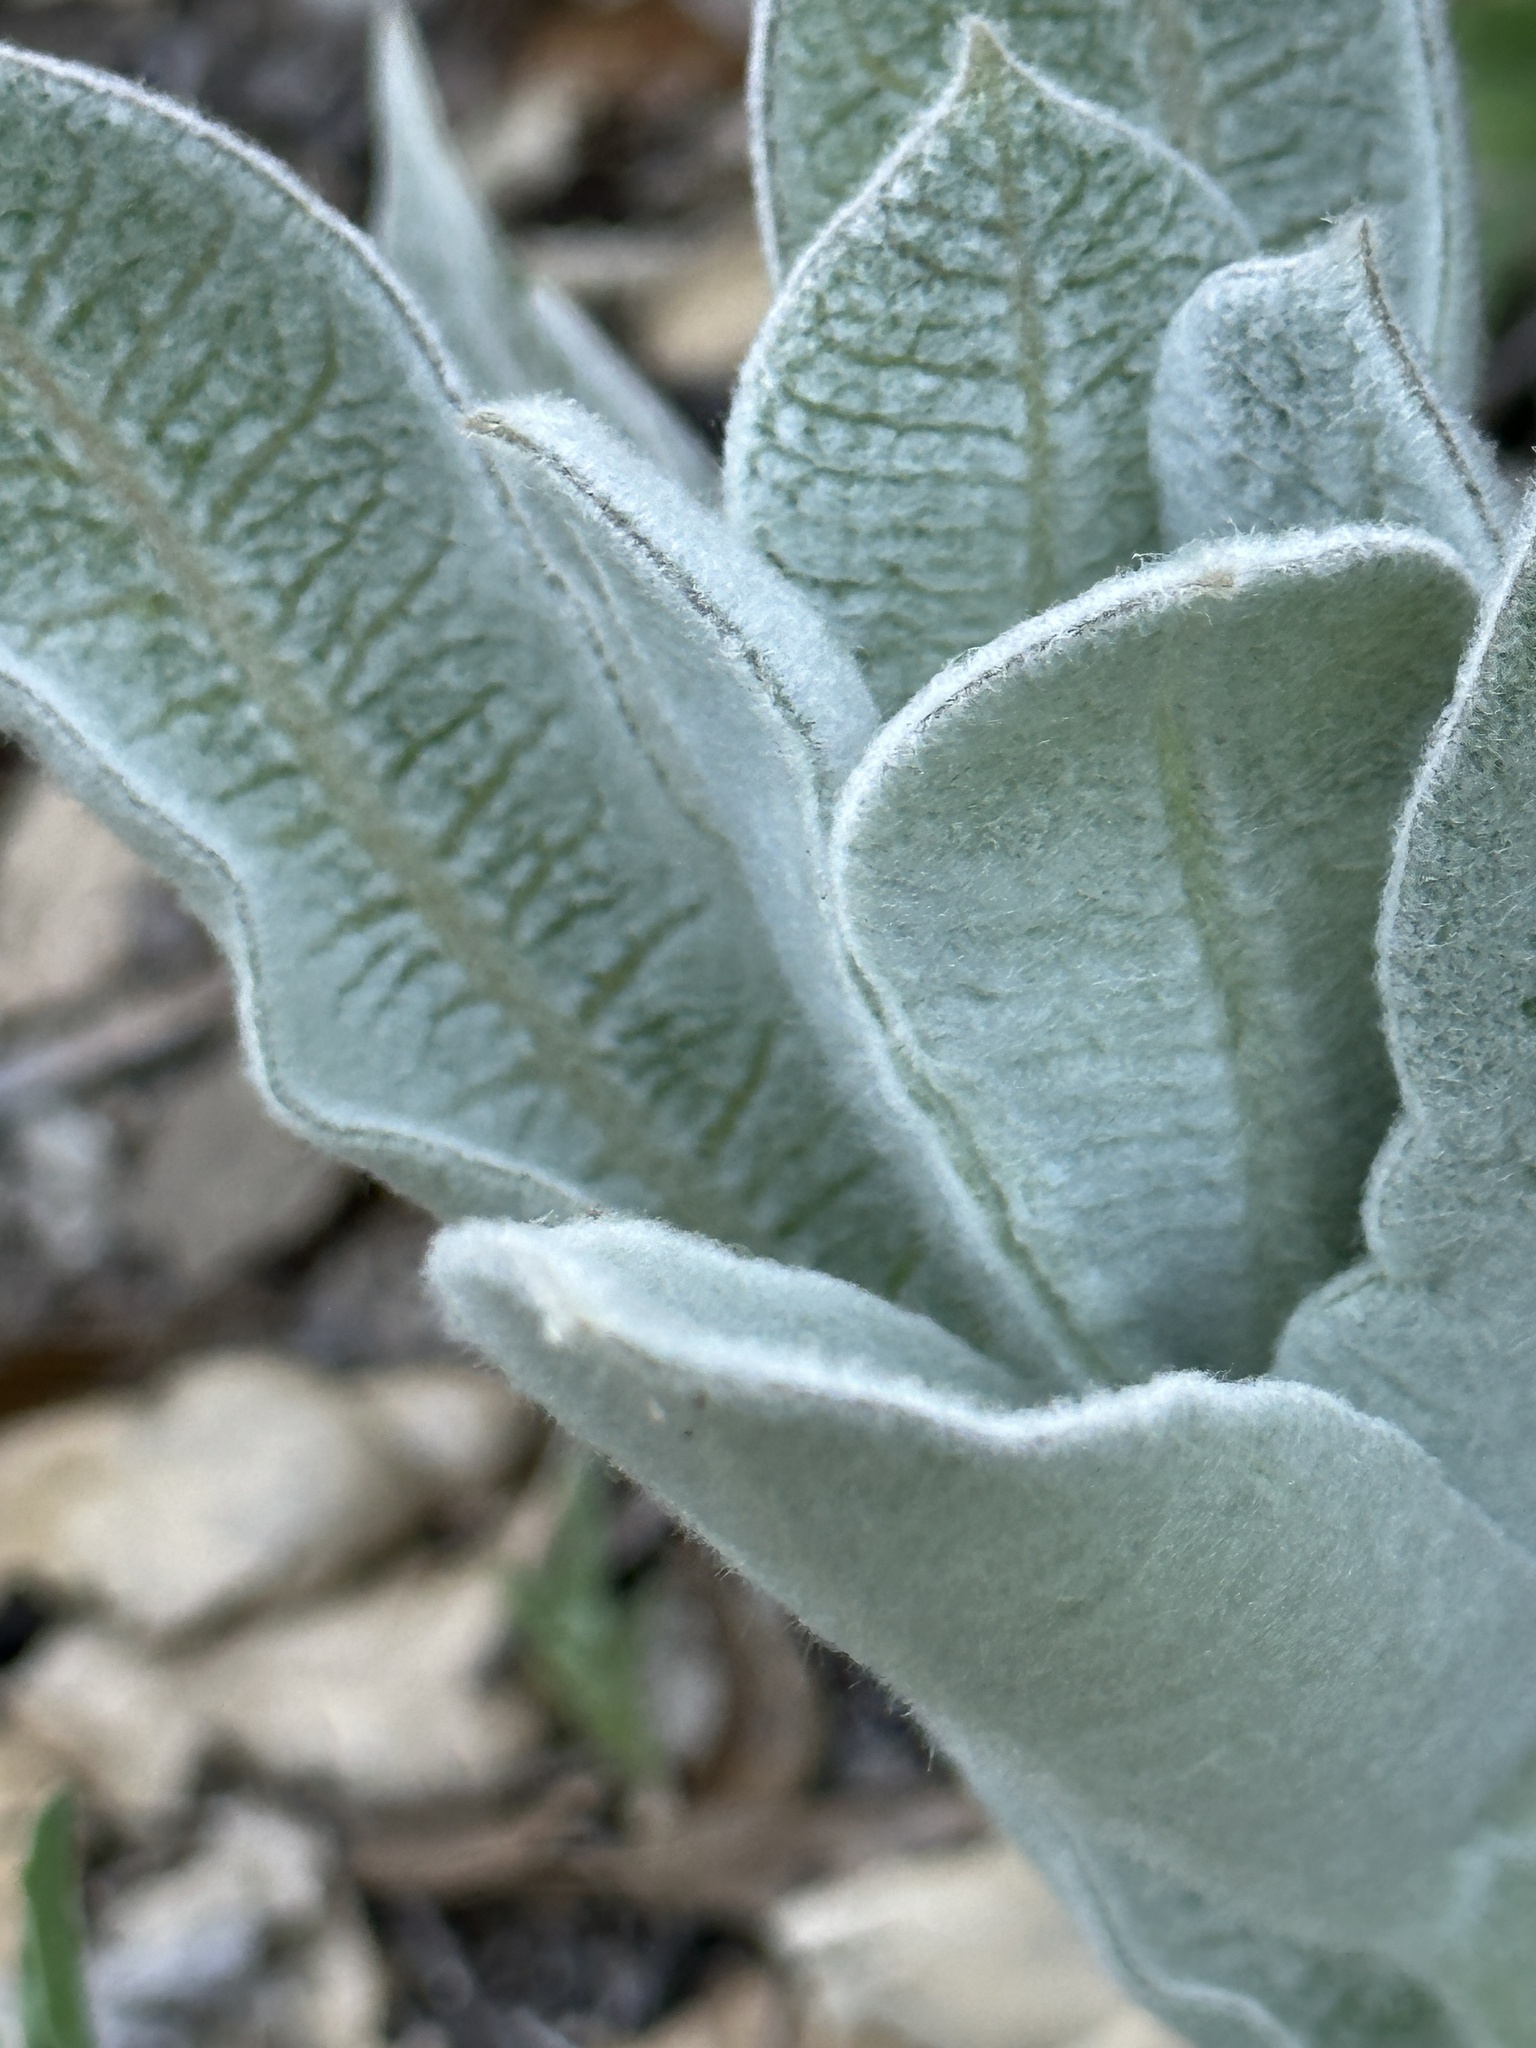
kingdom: Plantae
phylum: Tracheophyta
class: Magnoliopsida
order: Gentianales
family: Apocynaceae
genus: Asclepias
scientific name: Asclepias eriocarpa
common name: Indian milkweed
